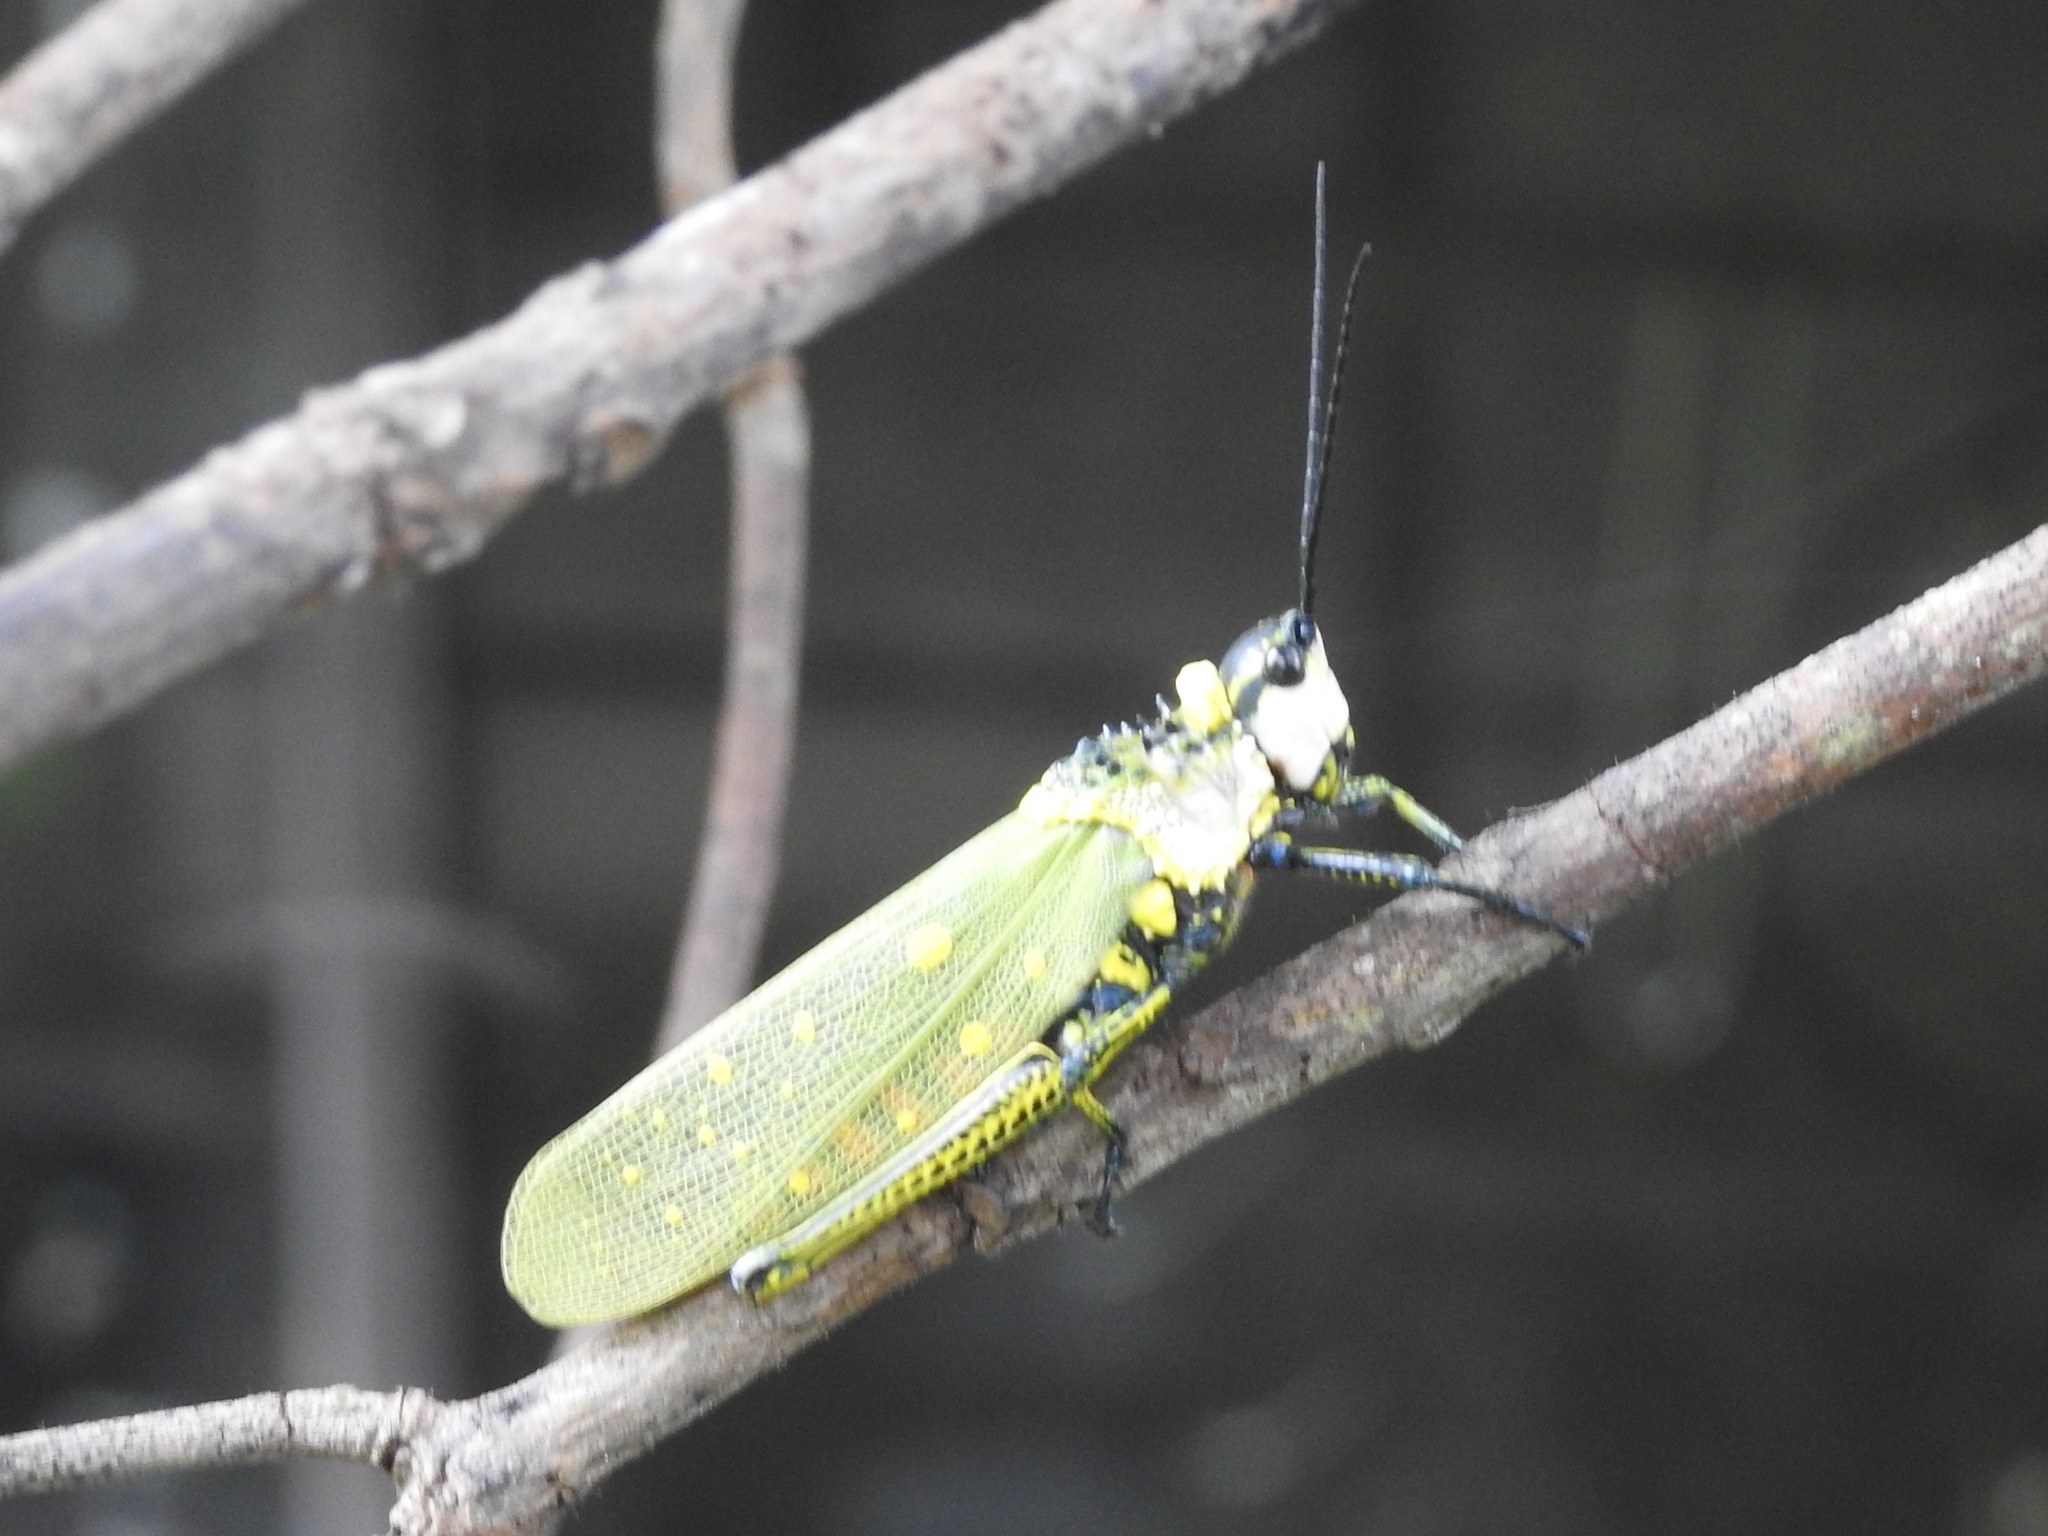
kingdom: Animalia
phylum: Arthropoda
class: Insecta
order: Orthoptera
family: Pyrgomorphidae
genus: Aularches
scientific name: Aularches miliaris
